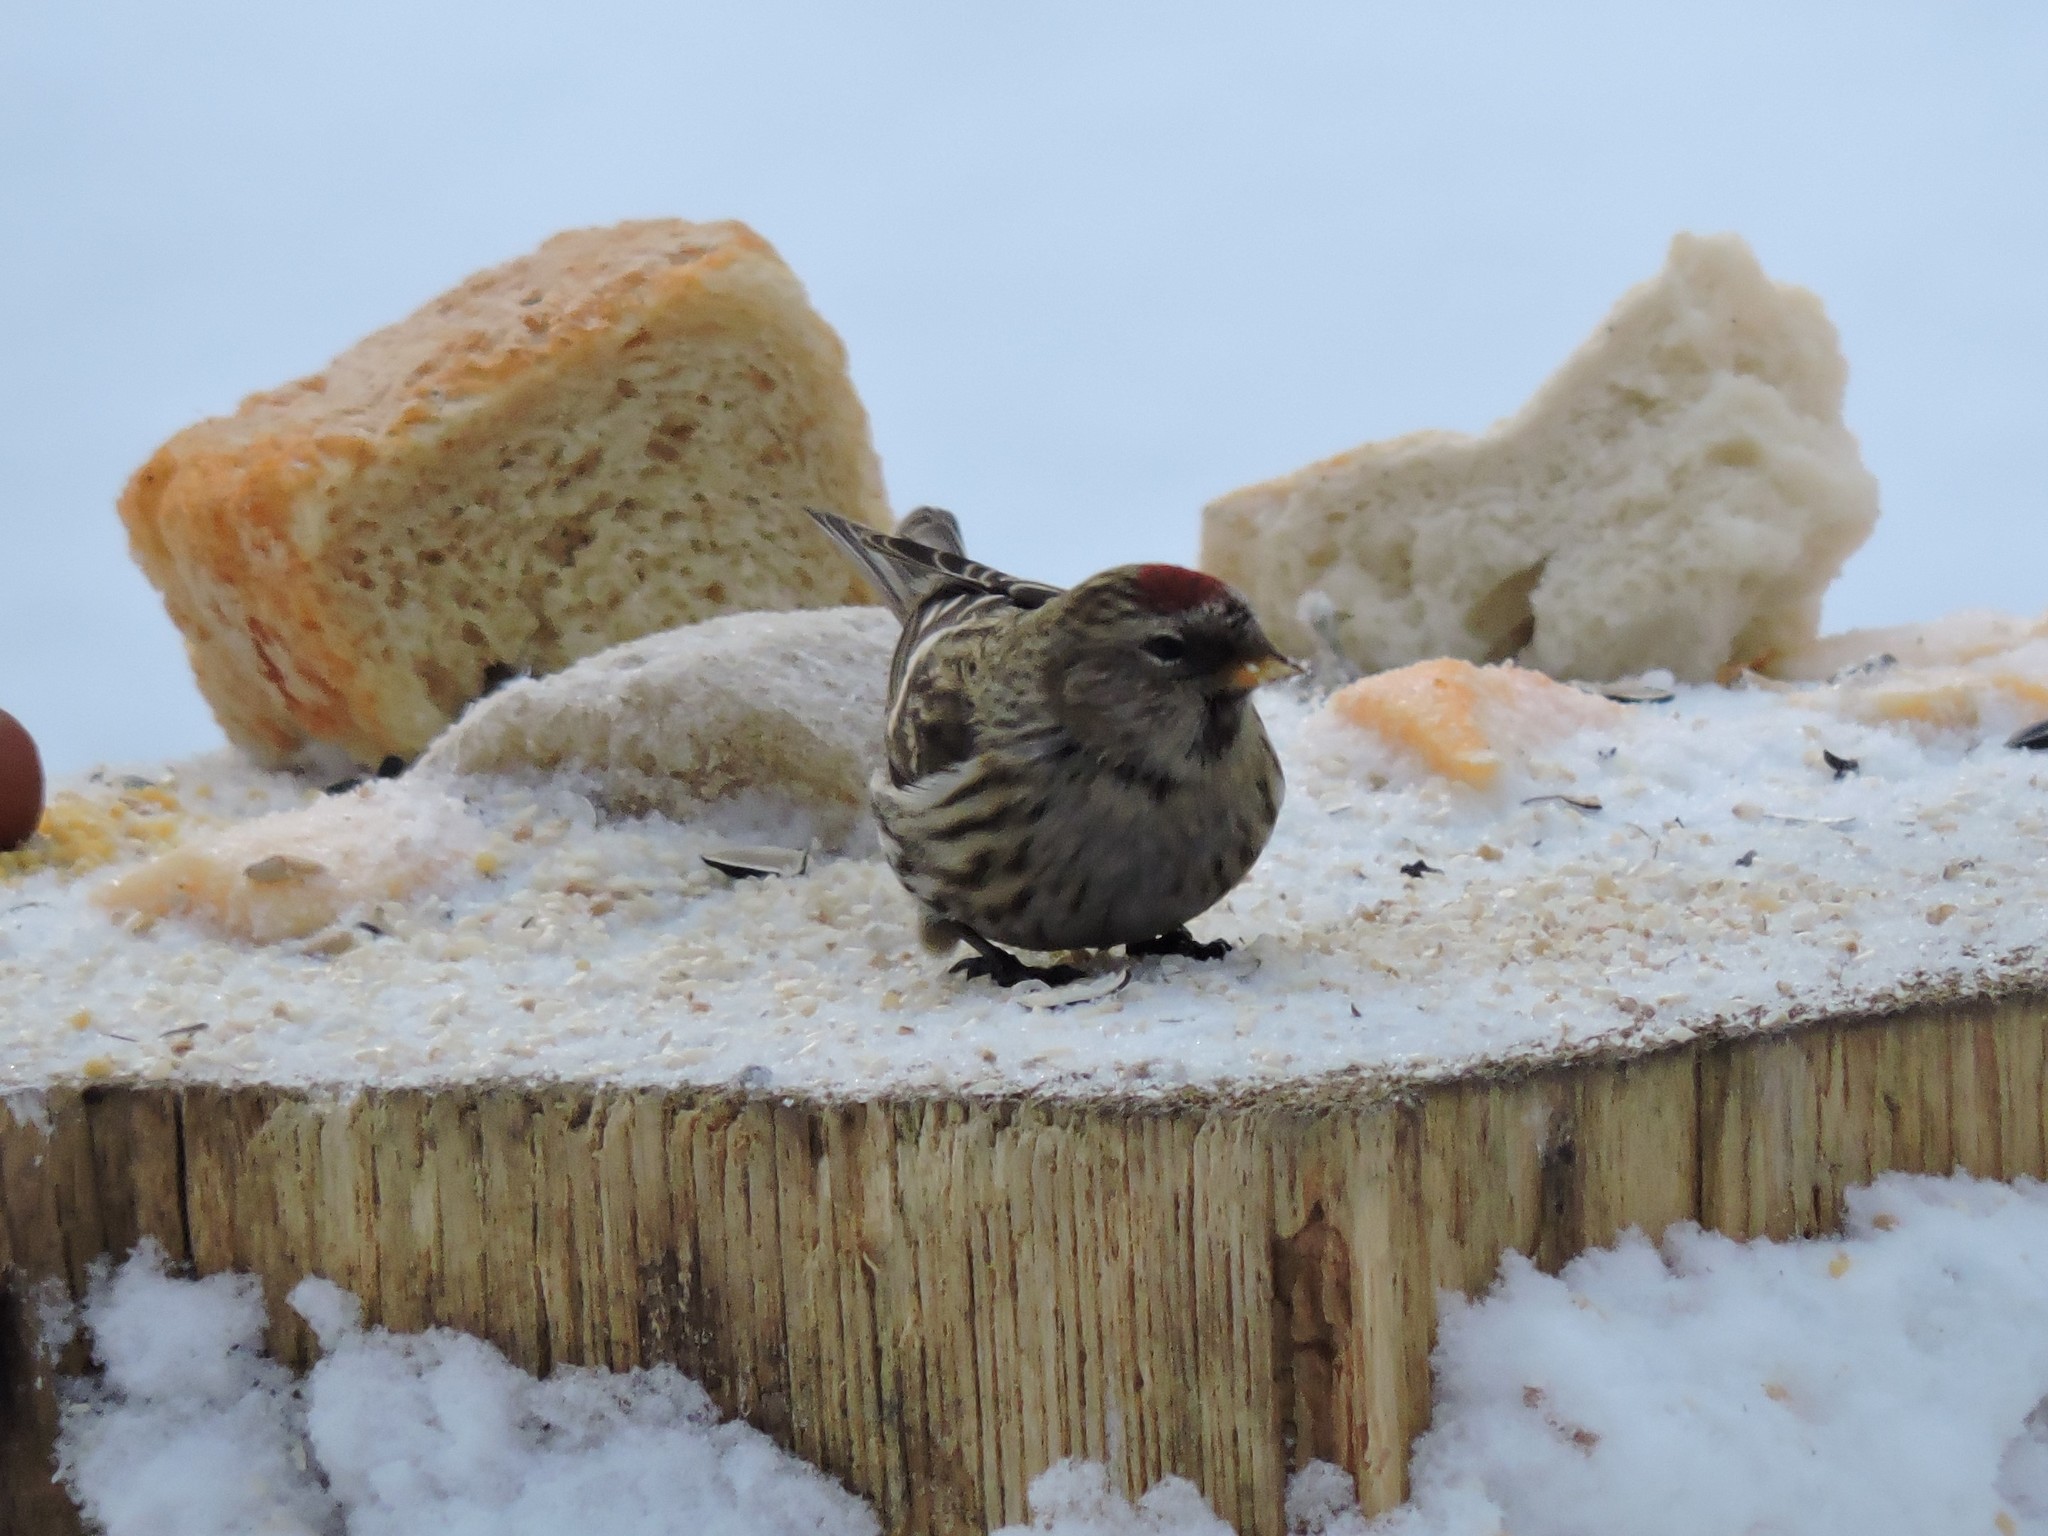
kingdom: Animalia
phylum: Chordata
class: Aves
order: Passeriformes
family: Fringillidae
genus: Acanthis
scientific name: Acanthis flammea
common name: Common redpoll
